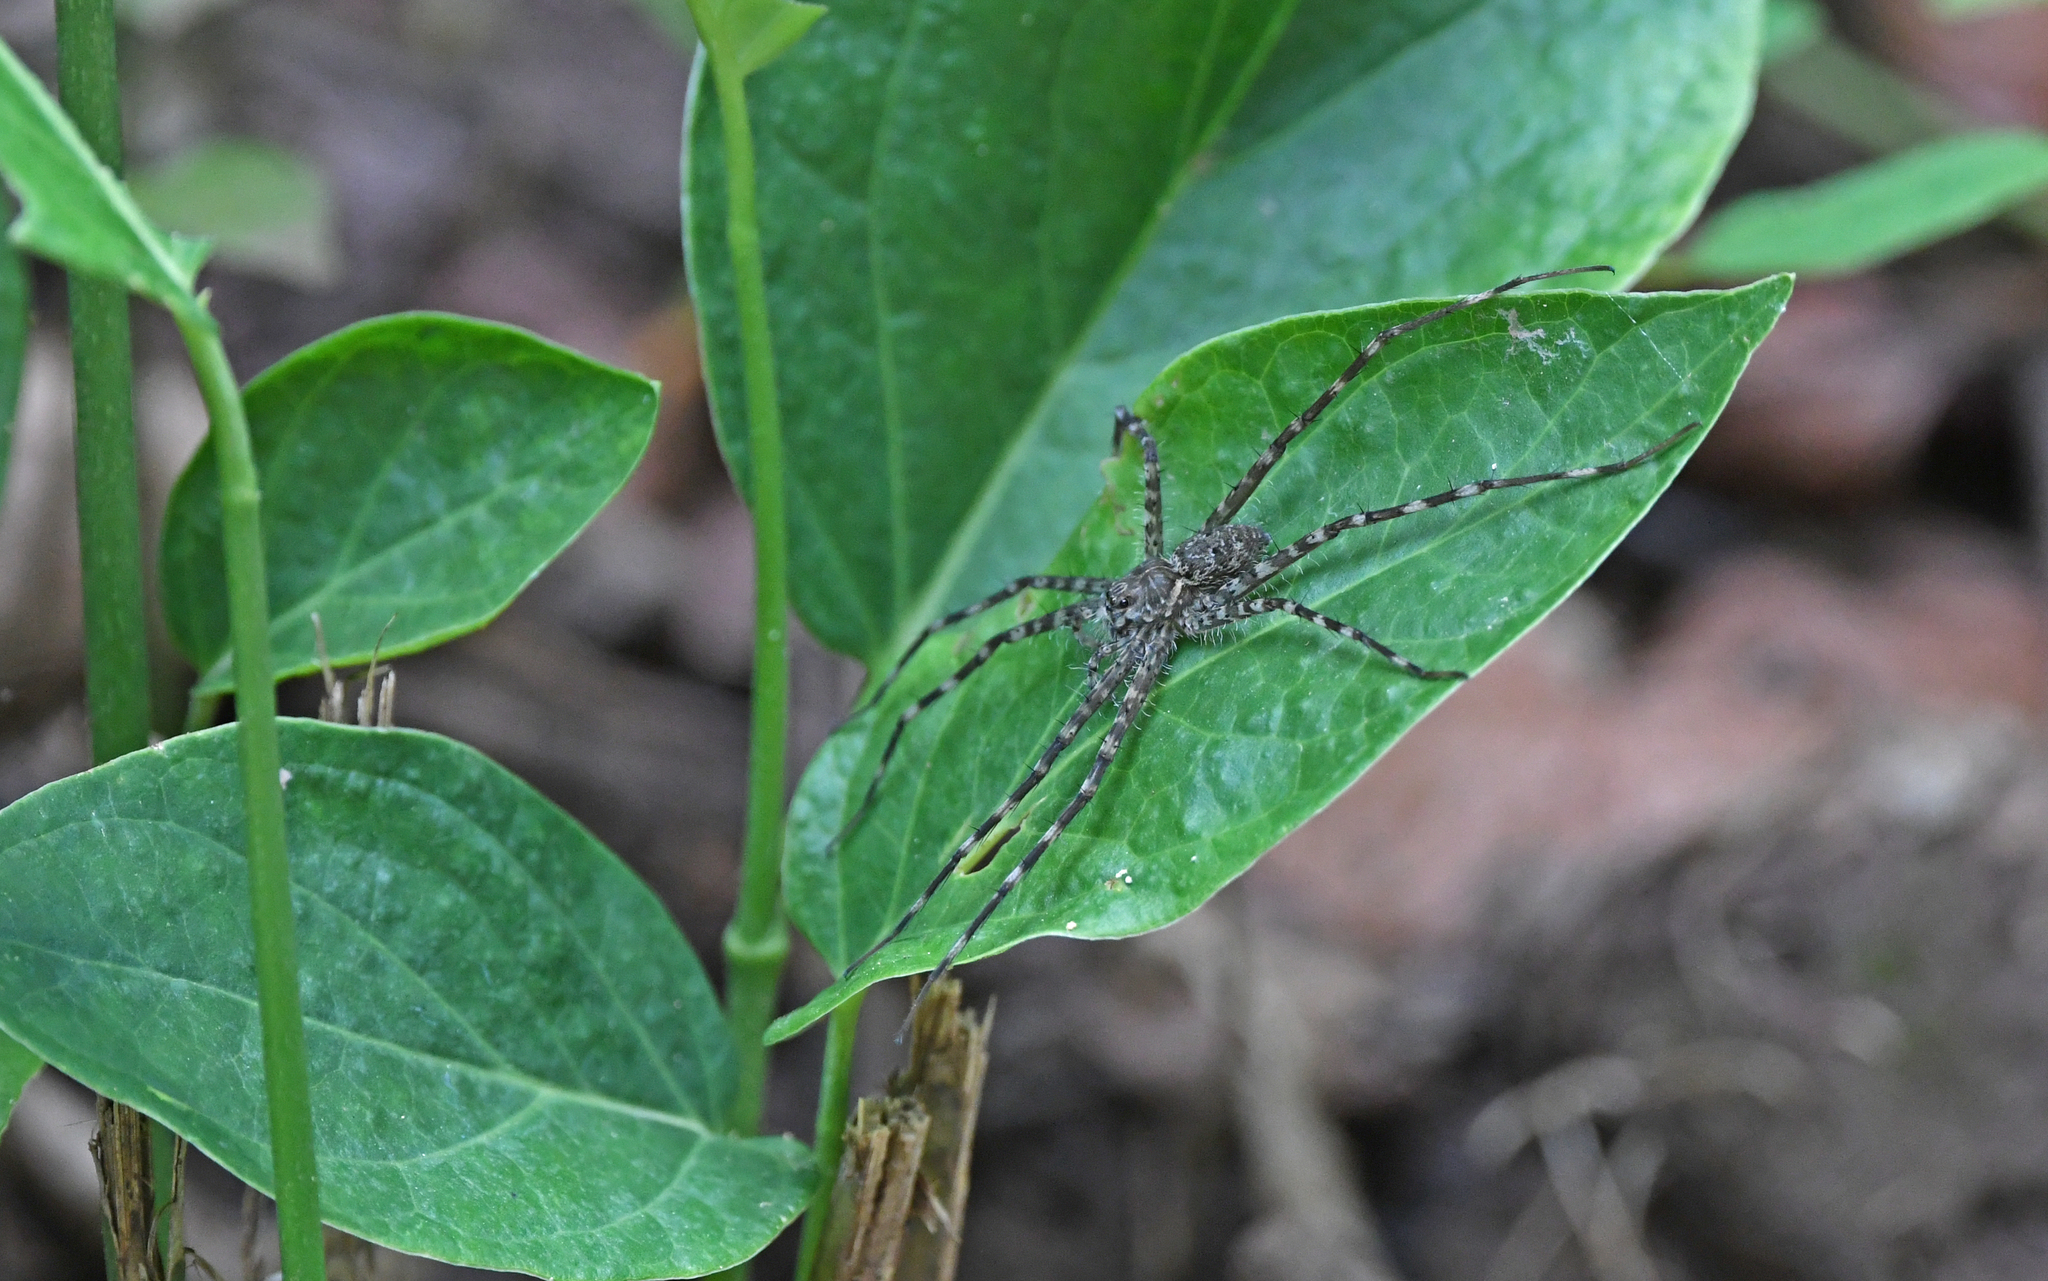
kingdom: Animalia
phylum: Arthropoda
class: Arachnida
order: Araneae
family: Trechaleidae
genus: Trechalea
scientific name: Trechalea extensa
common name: Long legged water spiders
